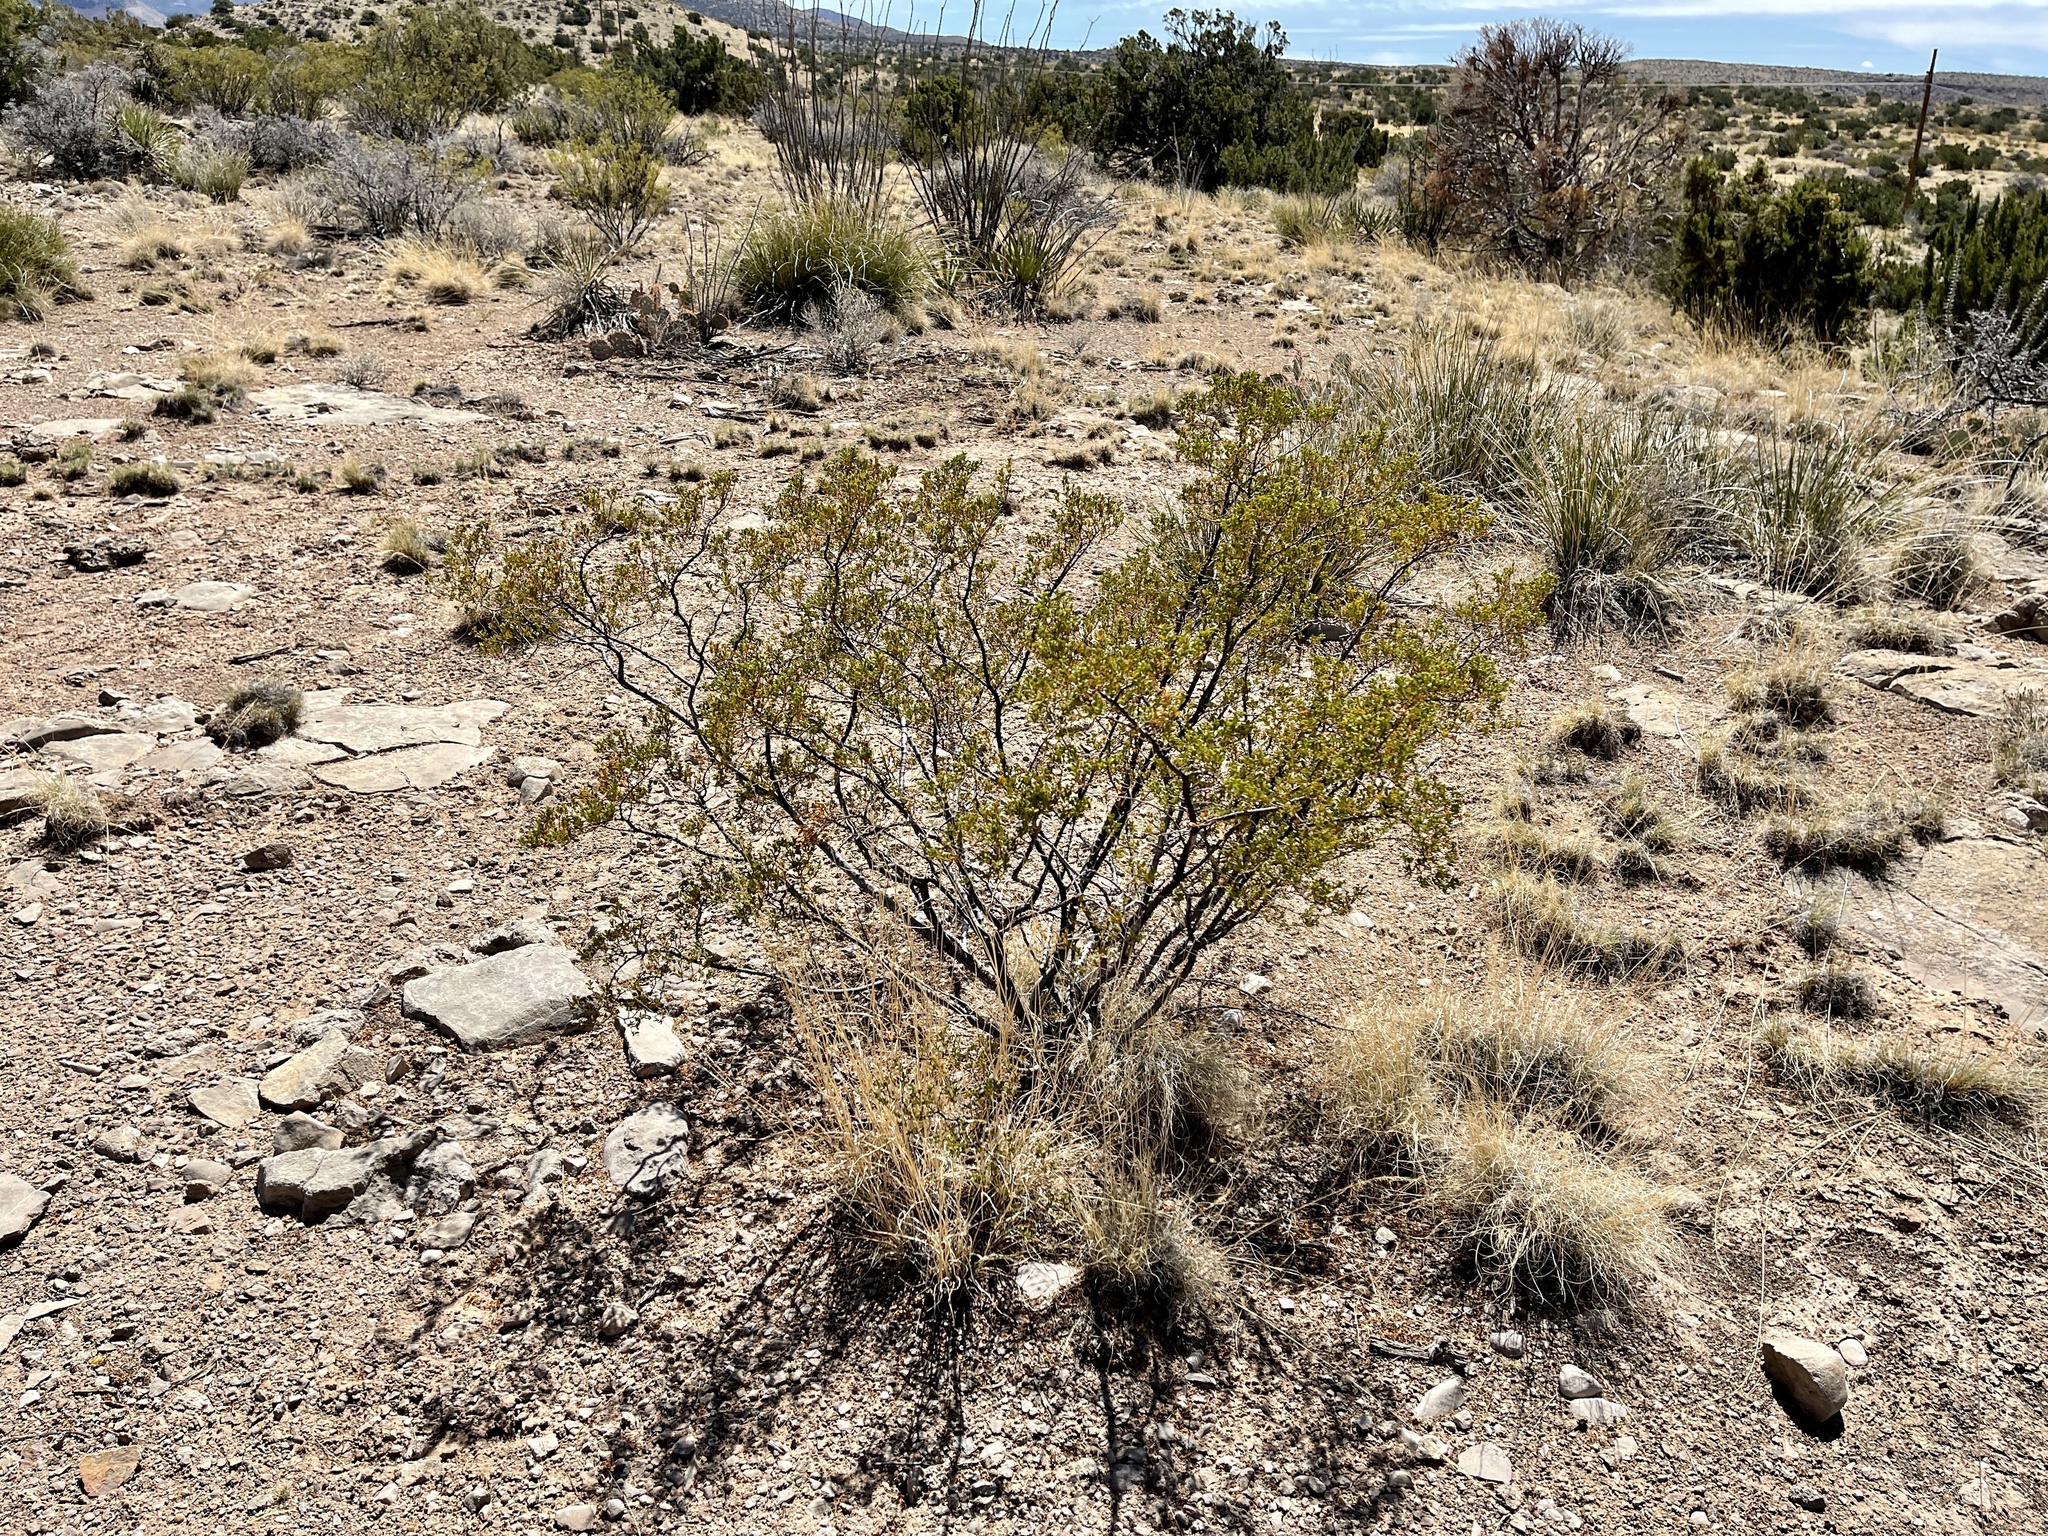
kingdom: Plantae
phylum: Tracheophyta
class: Magnoliopsida
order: Zygophyllales
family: Zygophyllaceae
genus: Larrea
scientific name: Larrea tridentata
